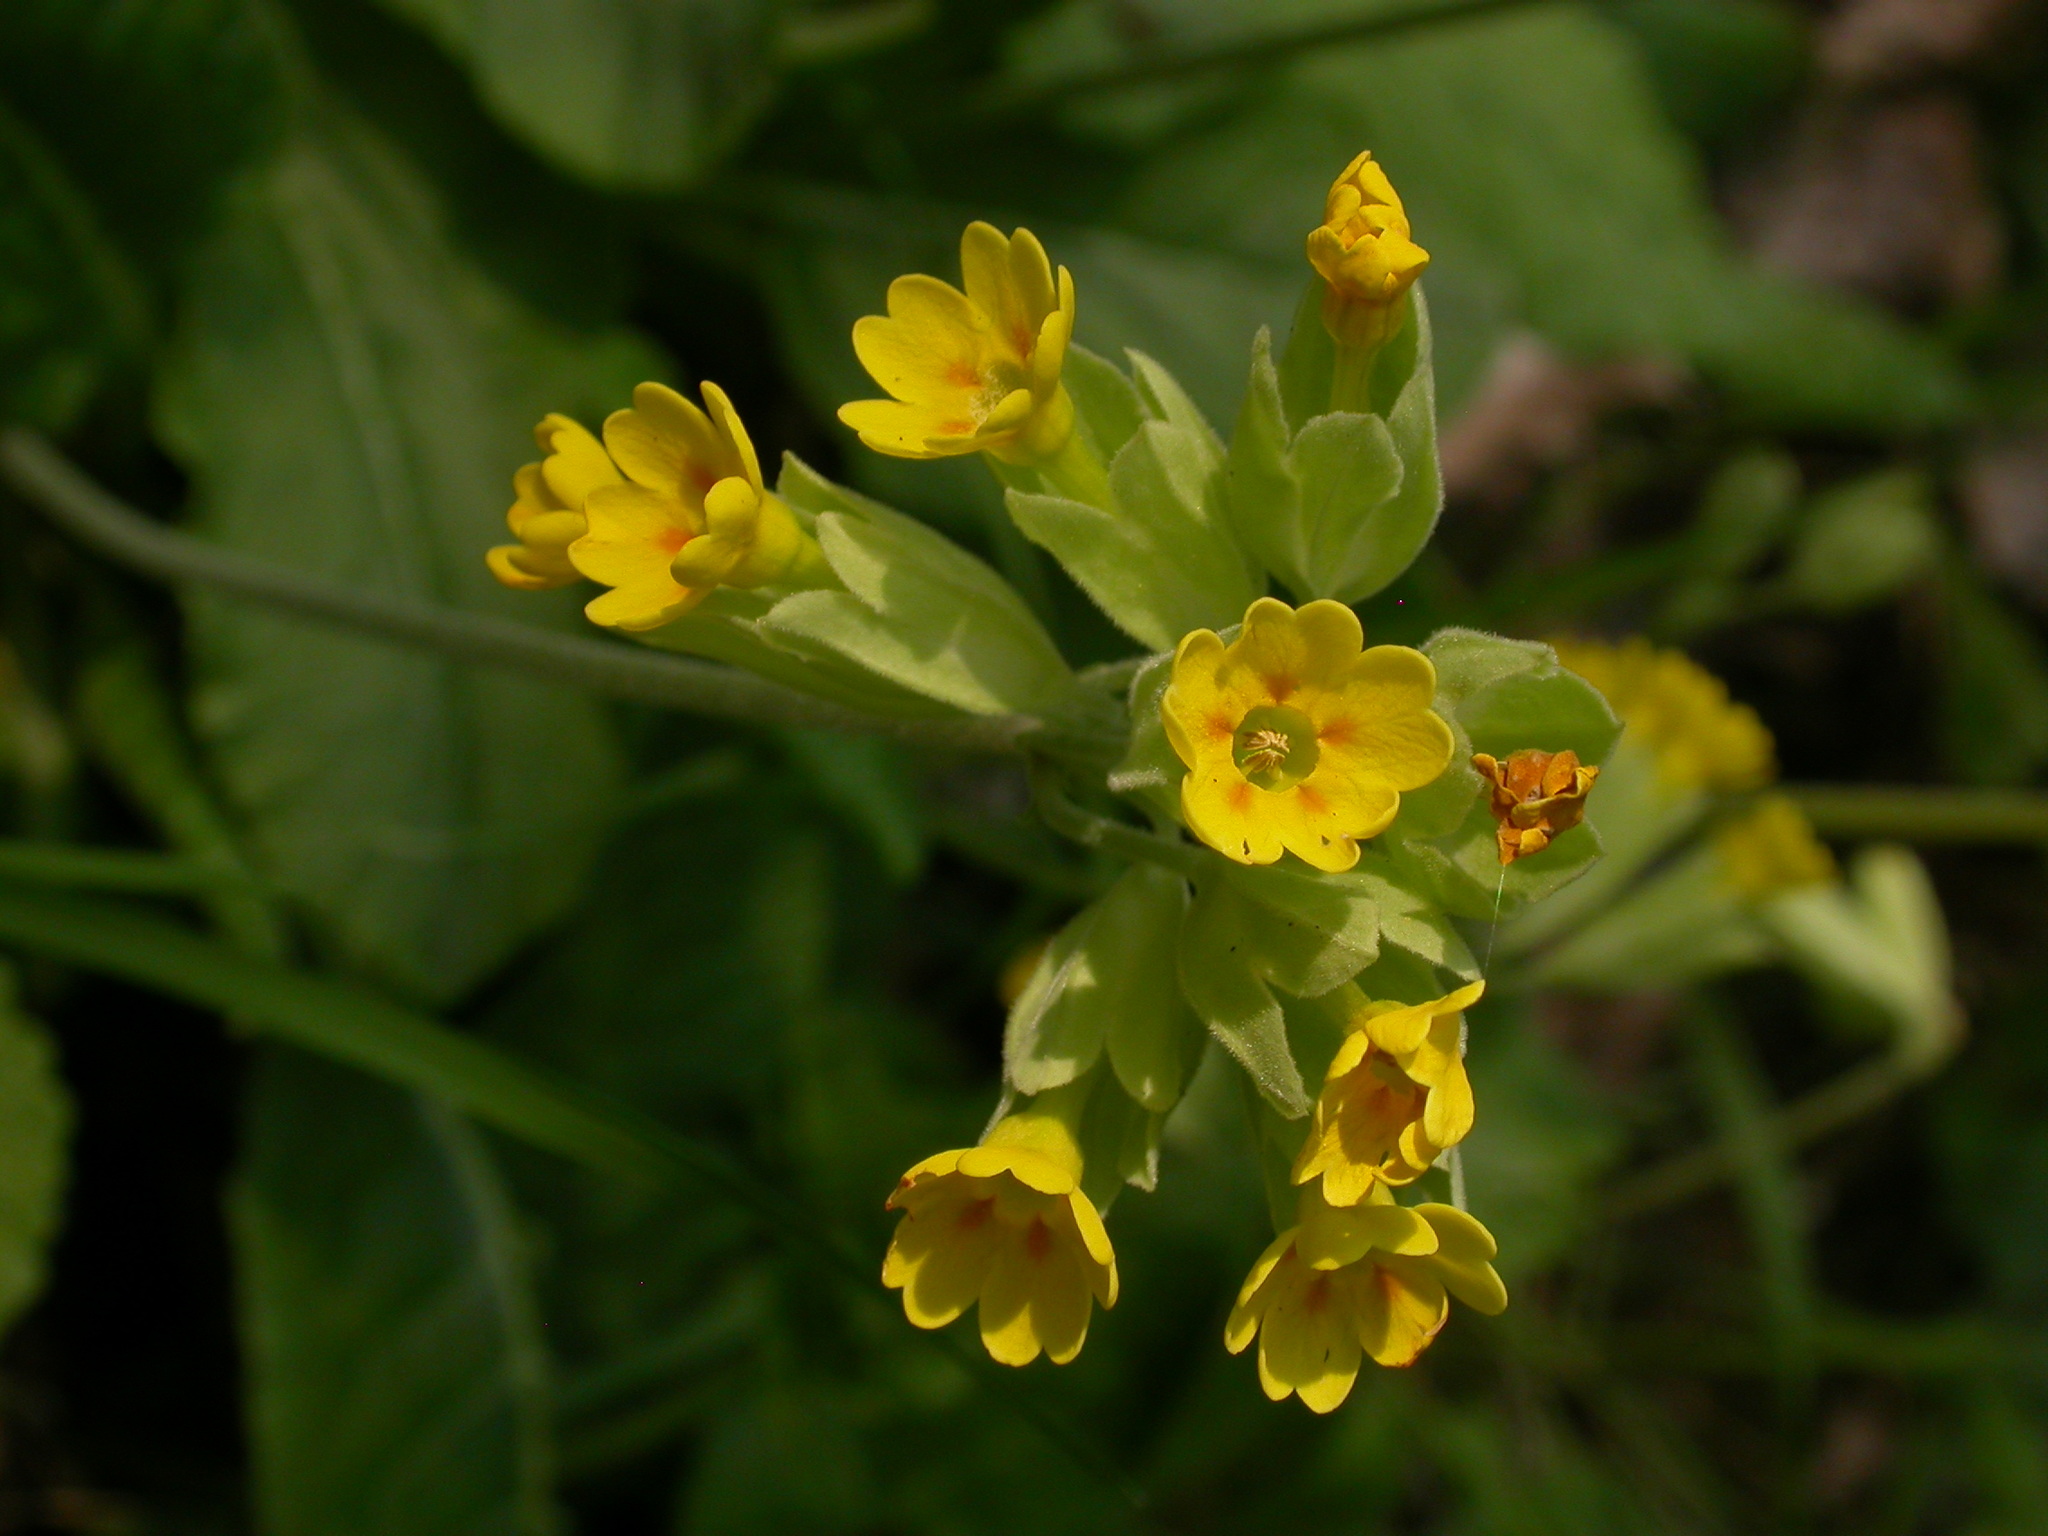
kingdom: Plantae
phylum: Tracheophyta
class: Magnoliopsida
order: Ericales
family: Primulaceae
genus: Primula
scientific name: Primula veris
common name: Cowslip
